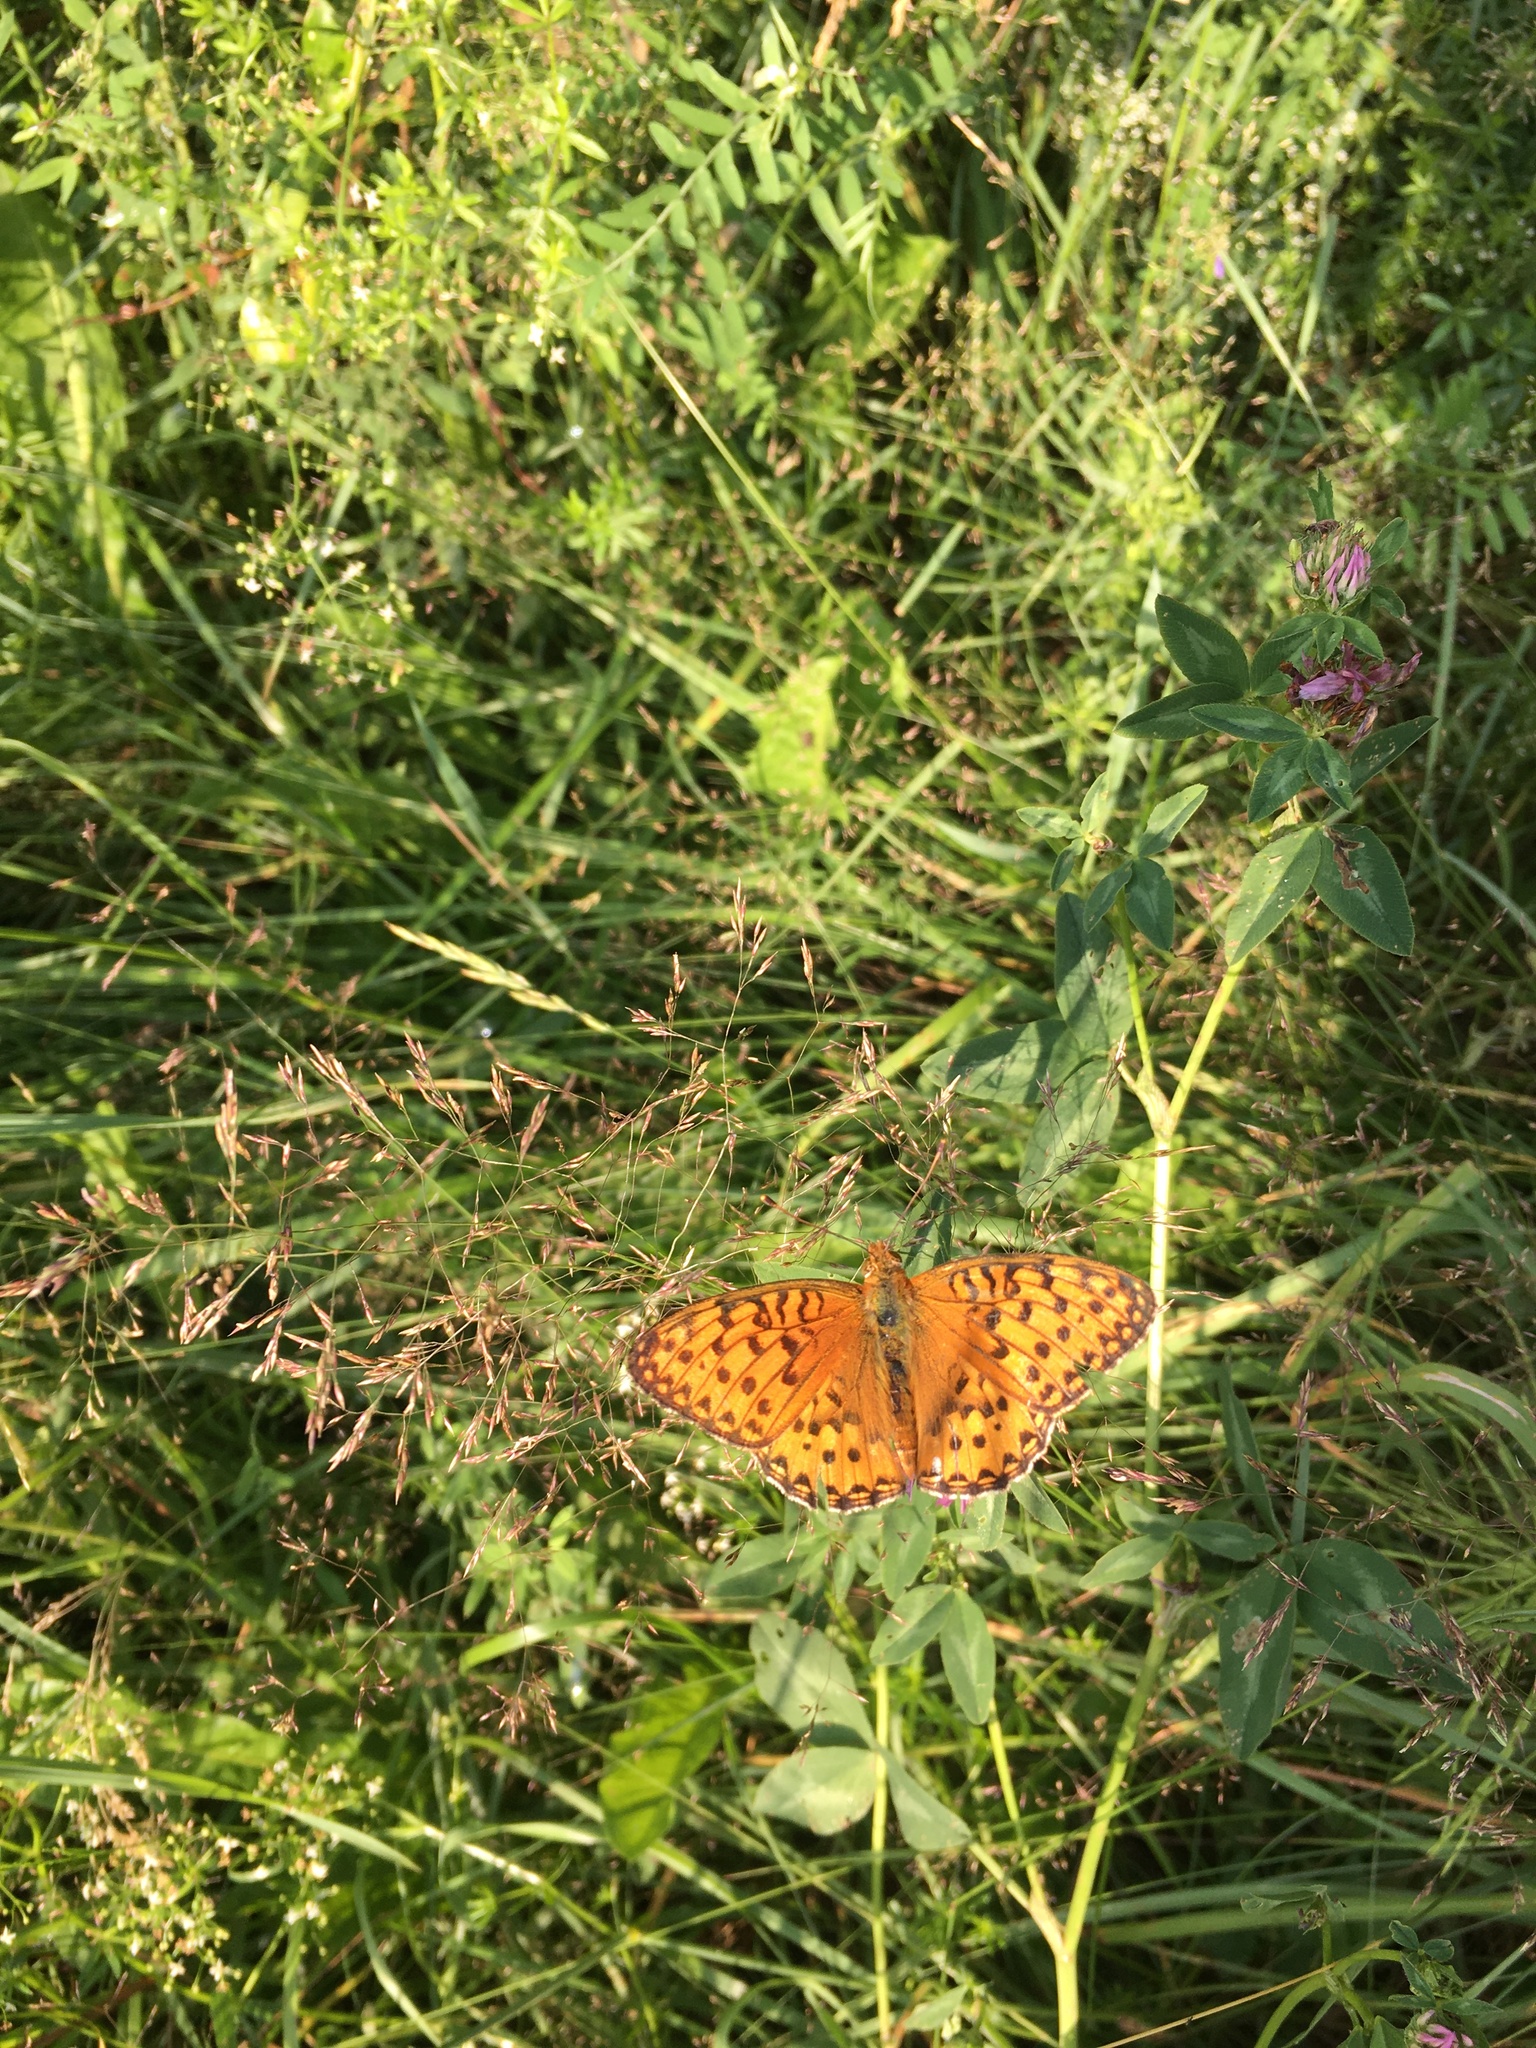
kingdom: Animalia
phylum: Arthropoda
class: Insecta
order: Lepidoptera
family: Nymphalidae
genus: Speyeria
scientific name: Speyeria aglaja
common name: Dark green fritillary
